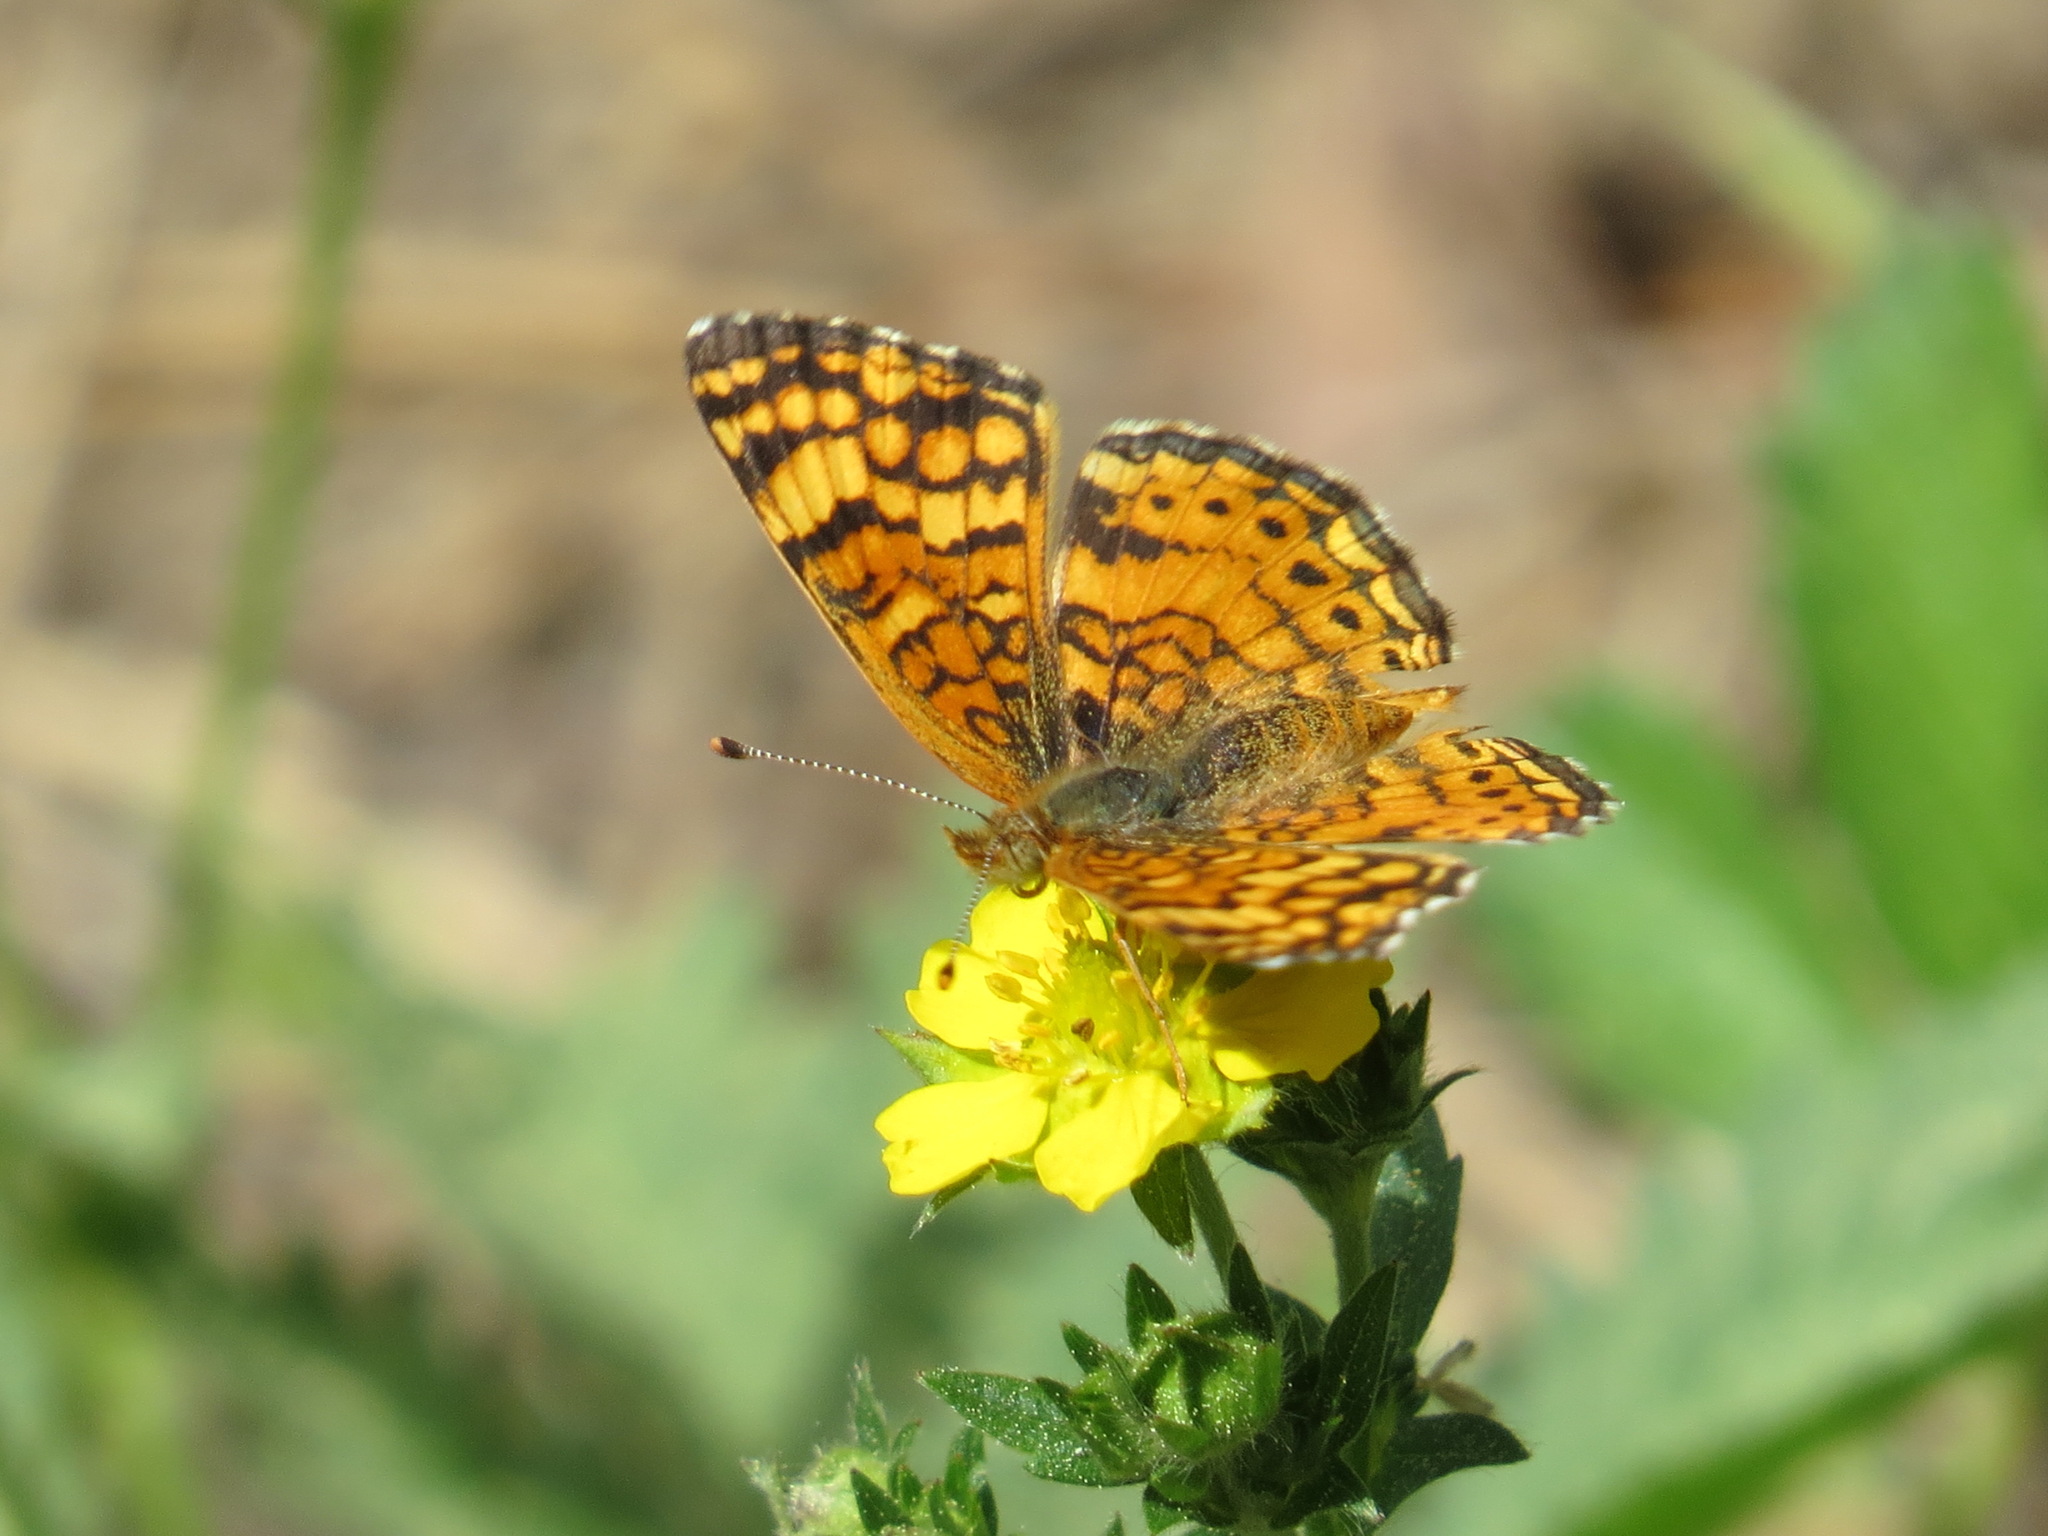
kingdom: Animalia
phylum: Arthropoda
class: Insecta
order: Lepidoptera
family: Nymphalidae
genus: Eresia
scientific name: Eresia aveyrona
